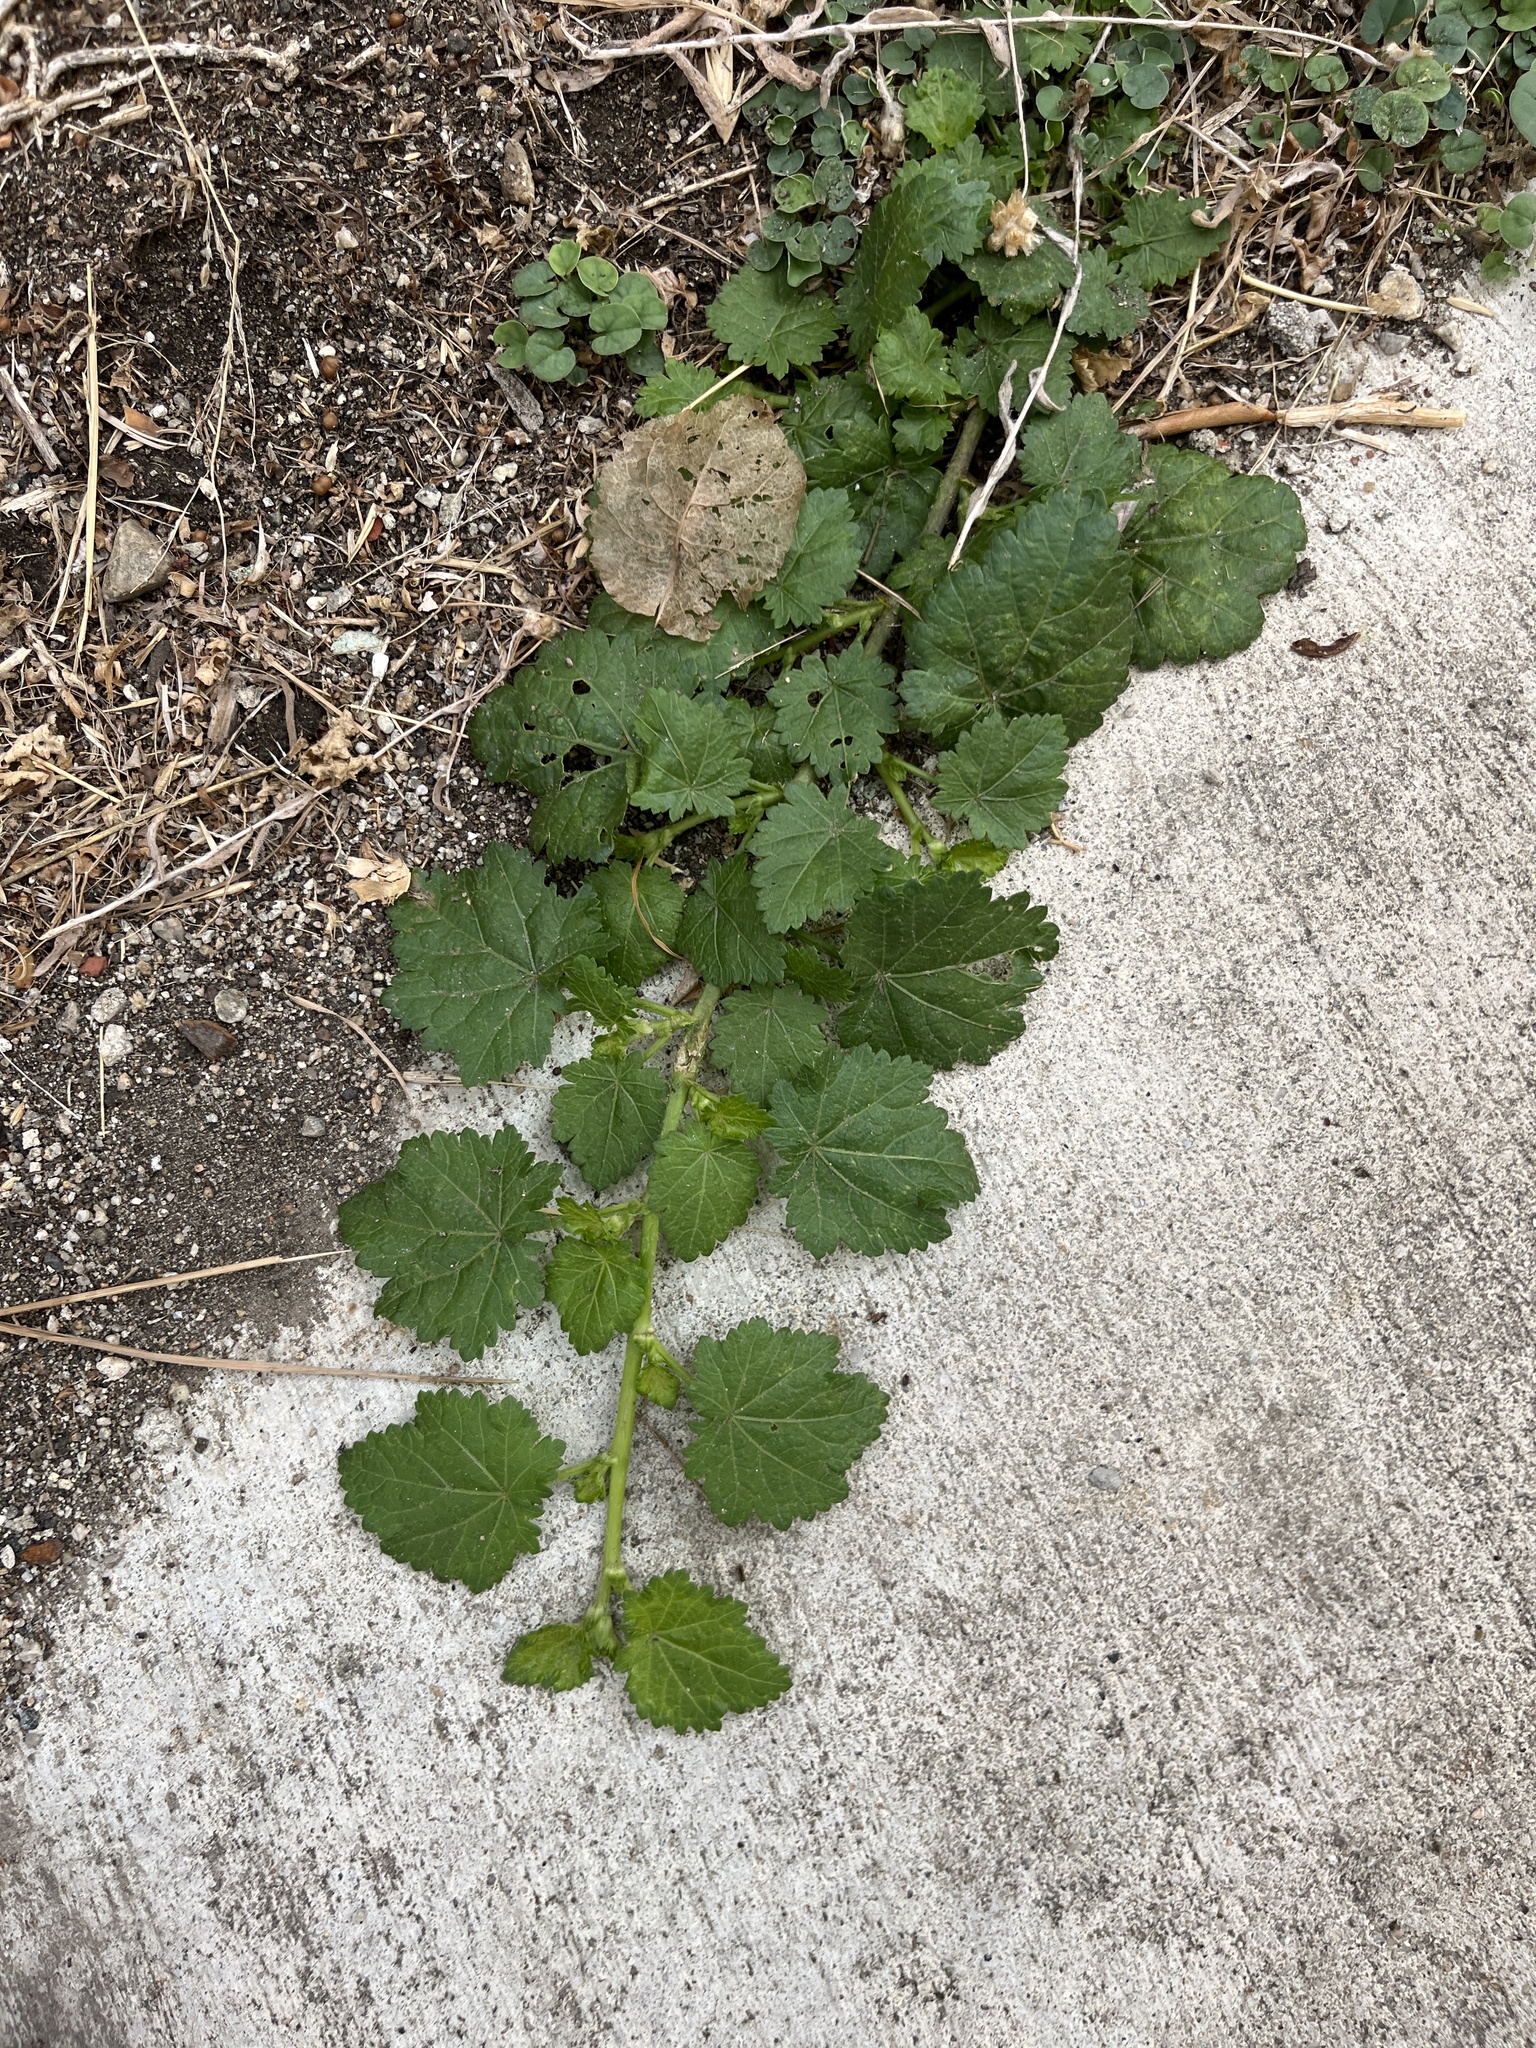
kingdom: Plantae
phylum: Tracheophyta
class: Magnoliopsida
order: Malvales
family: Malvaceae
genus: Modiola
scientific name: Modiola caroliniana
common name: Carolina bristlemallow
